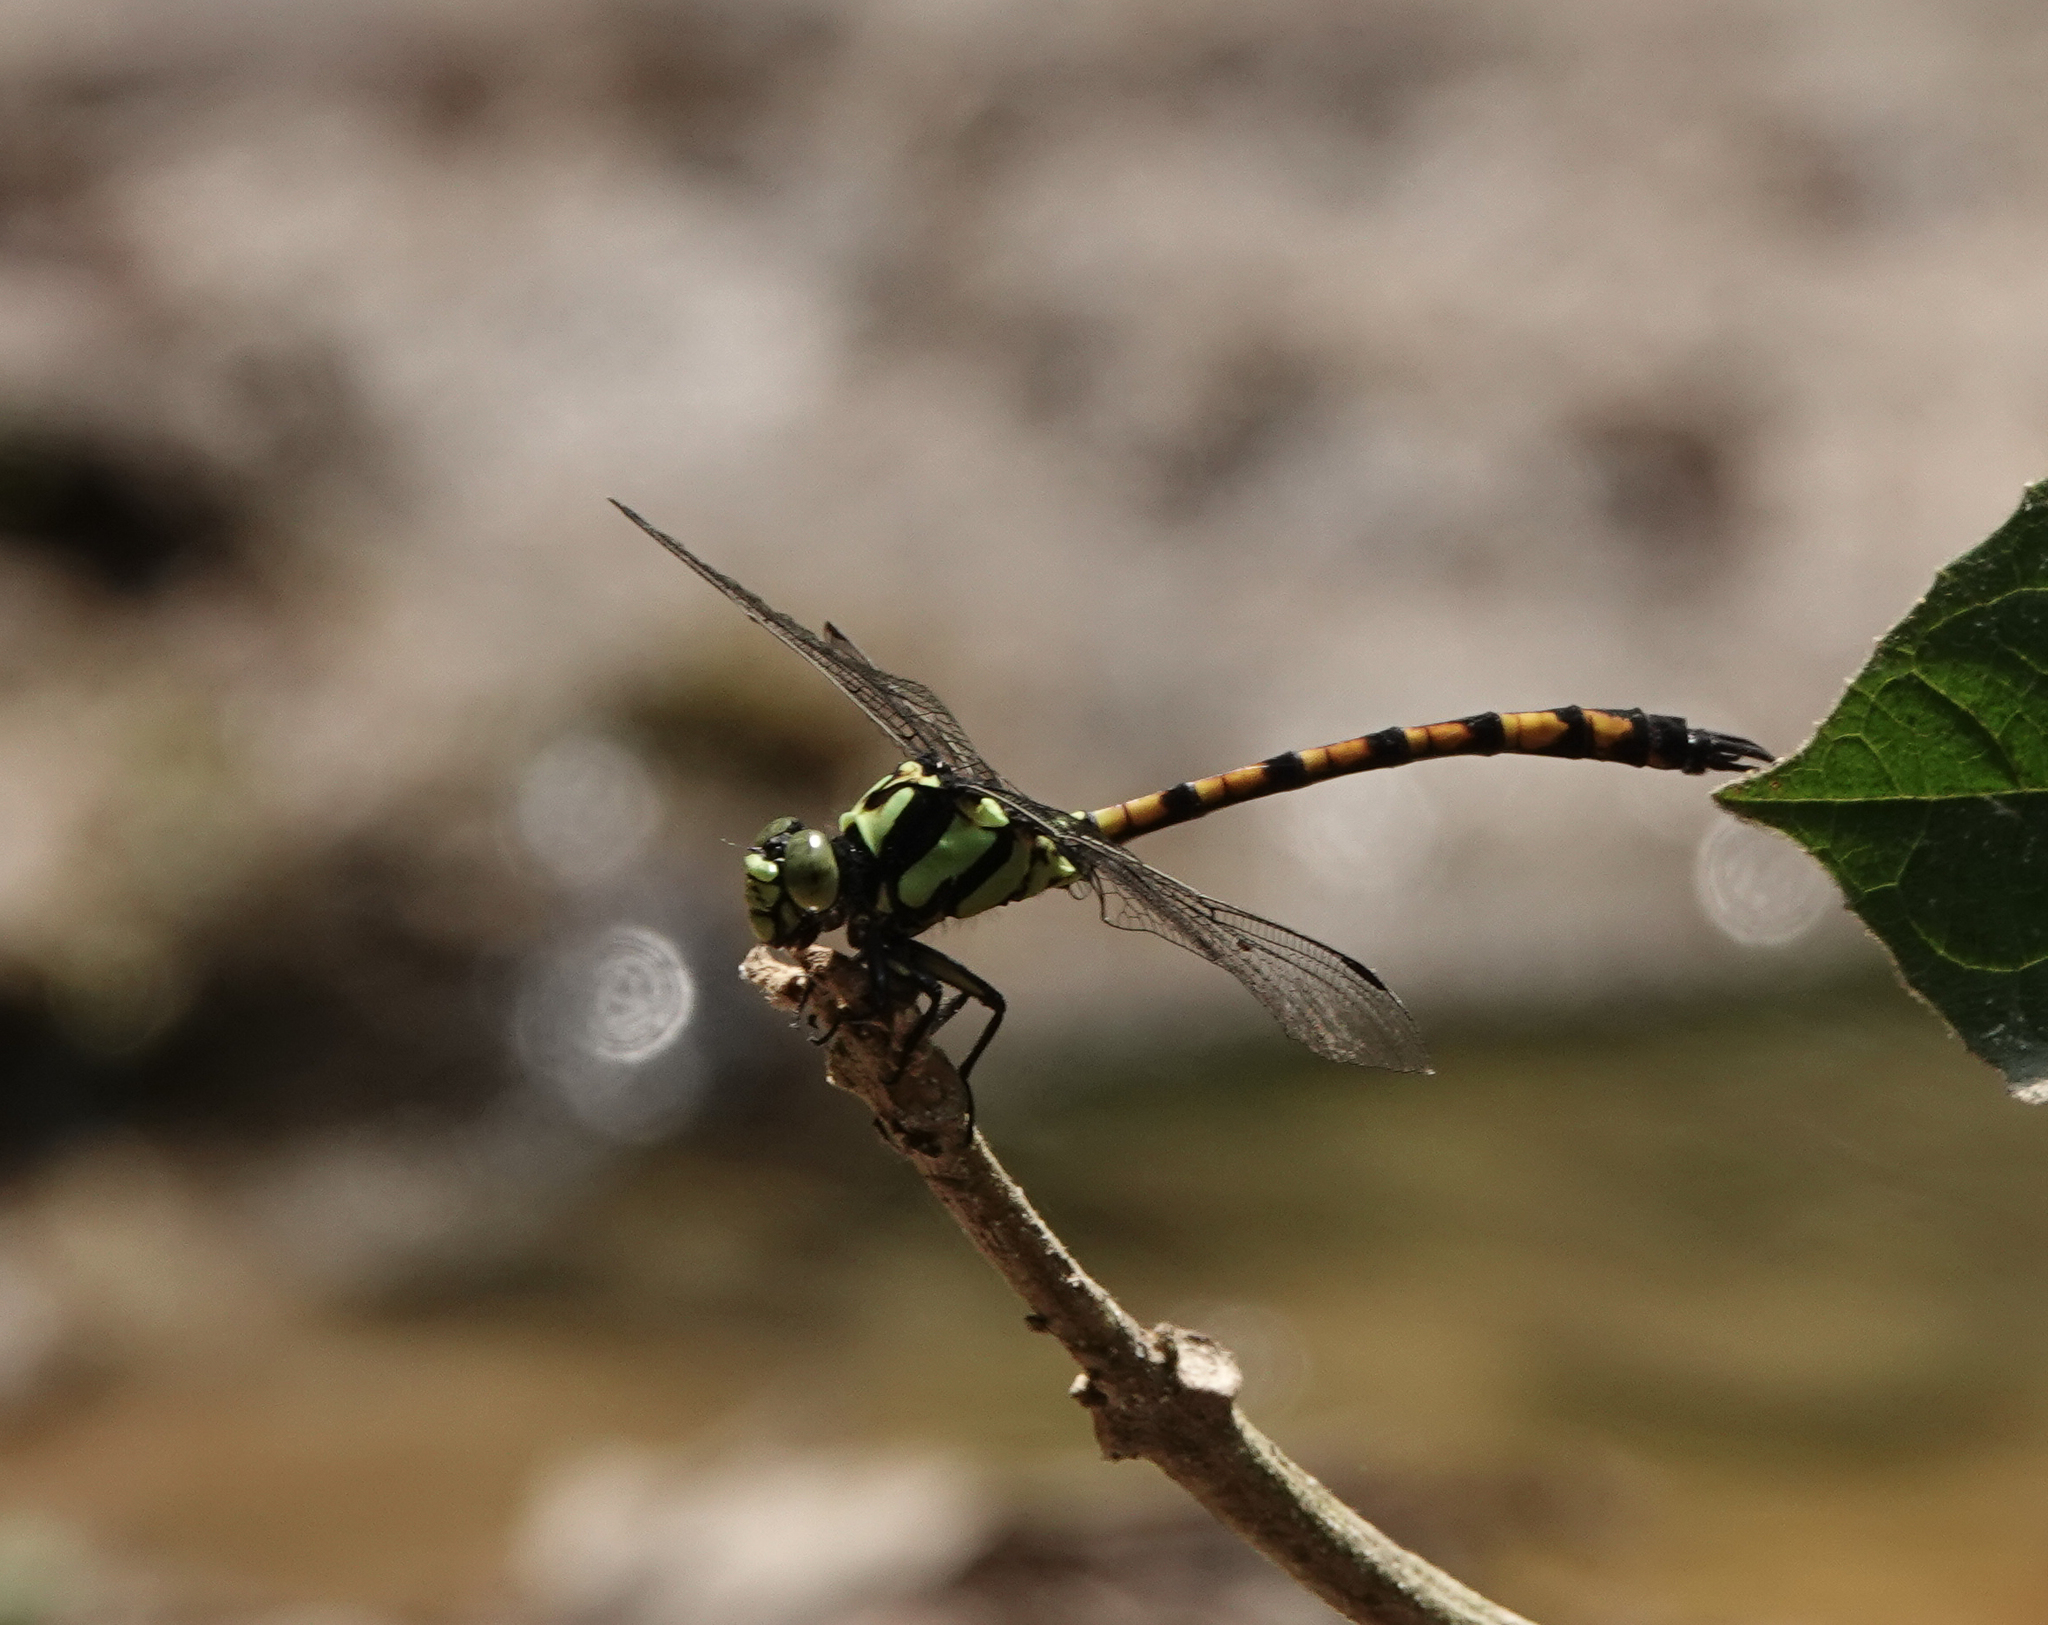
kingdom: Animalia
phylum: Arthropoda
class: Insecta
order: Odonata
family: Gomphidae
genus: Megalogomphus
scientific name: Megalogomphus smithii
